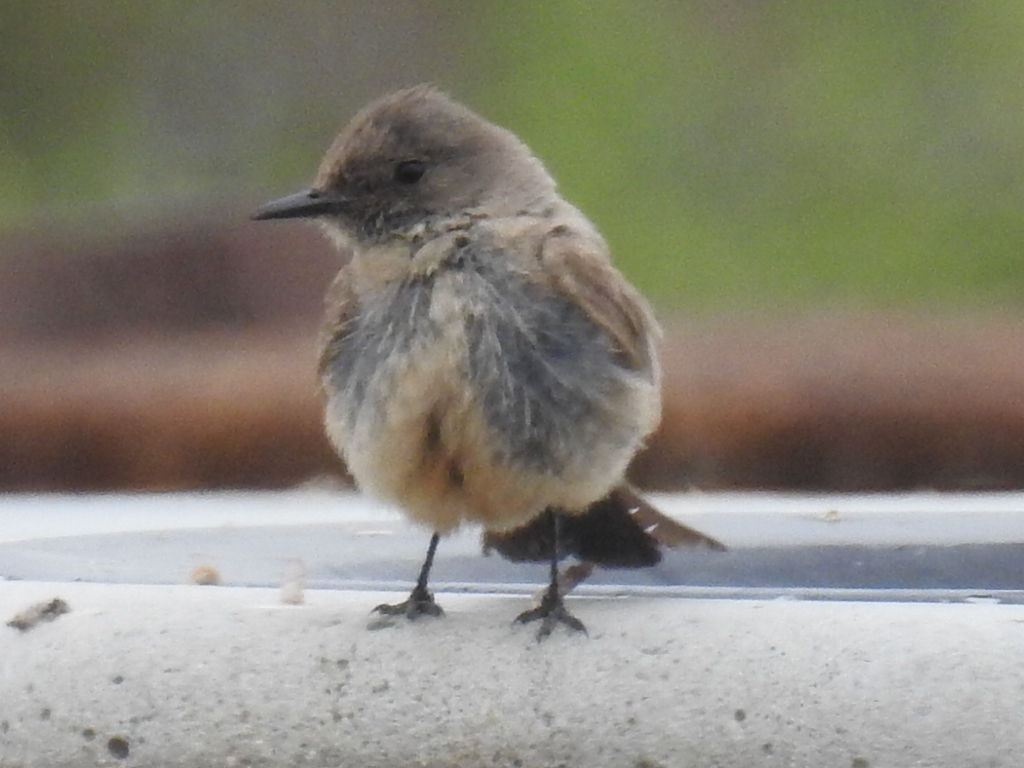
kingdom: Animalia
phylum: Chordata
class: Aves
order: Passeriformes
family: Tyrannidae
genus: Sayornis
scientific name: Sayornis saya
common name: Say's phoebe
